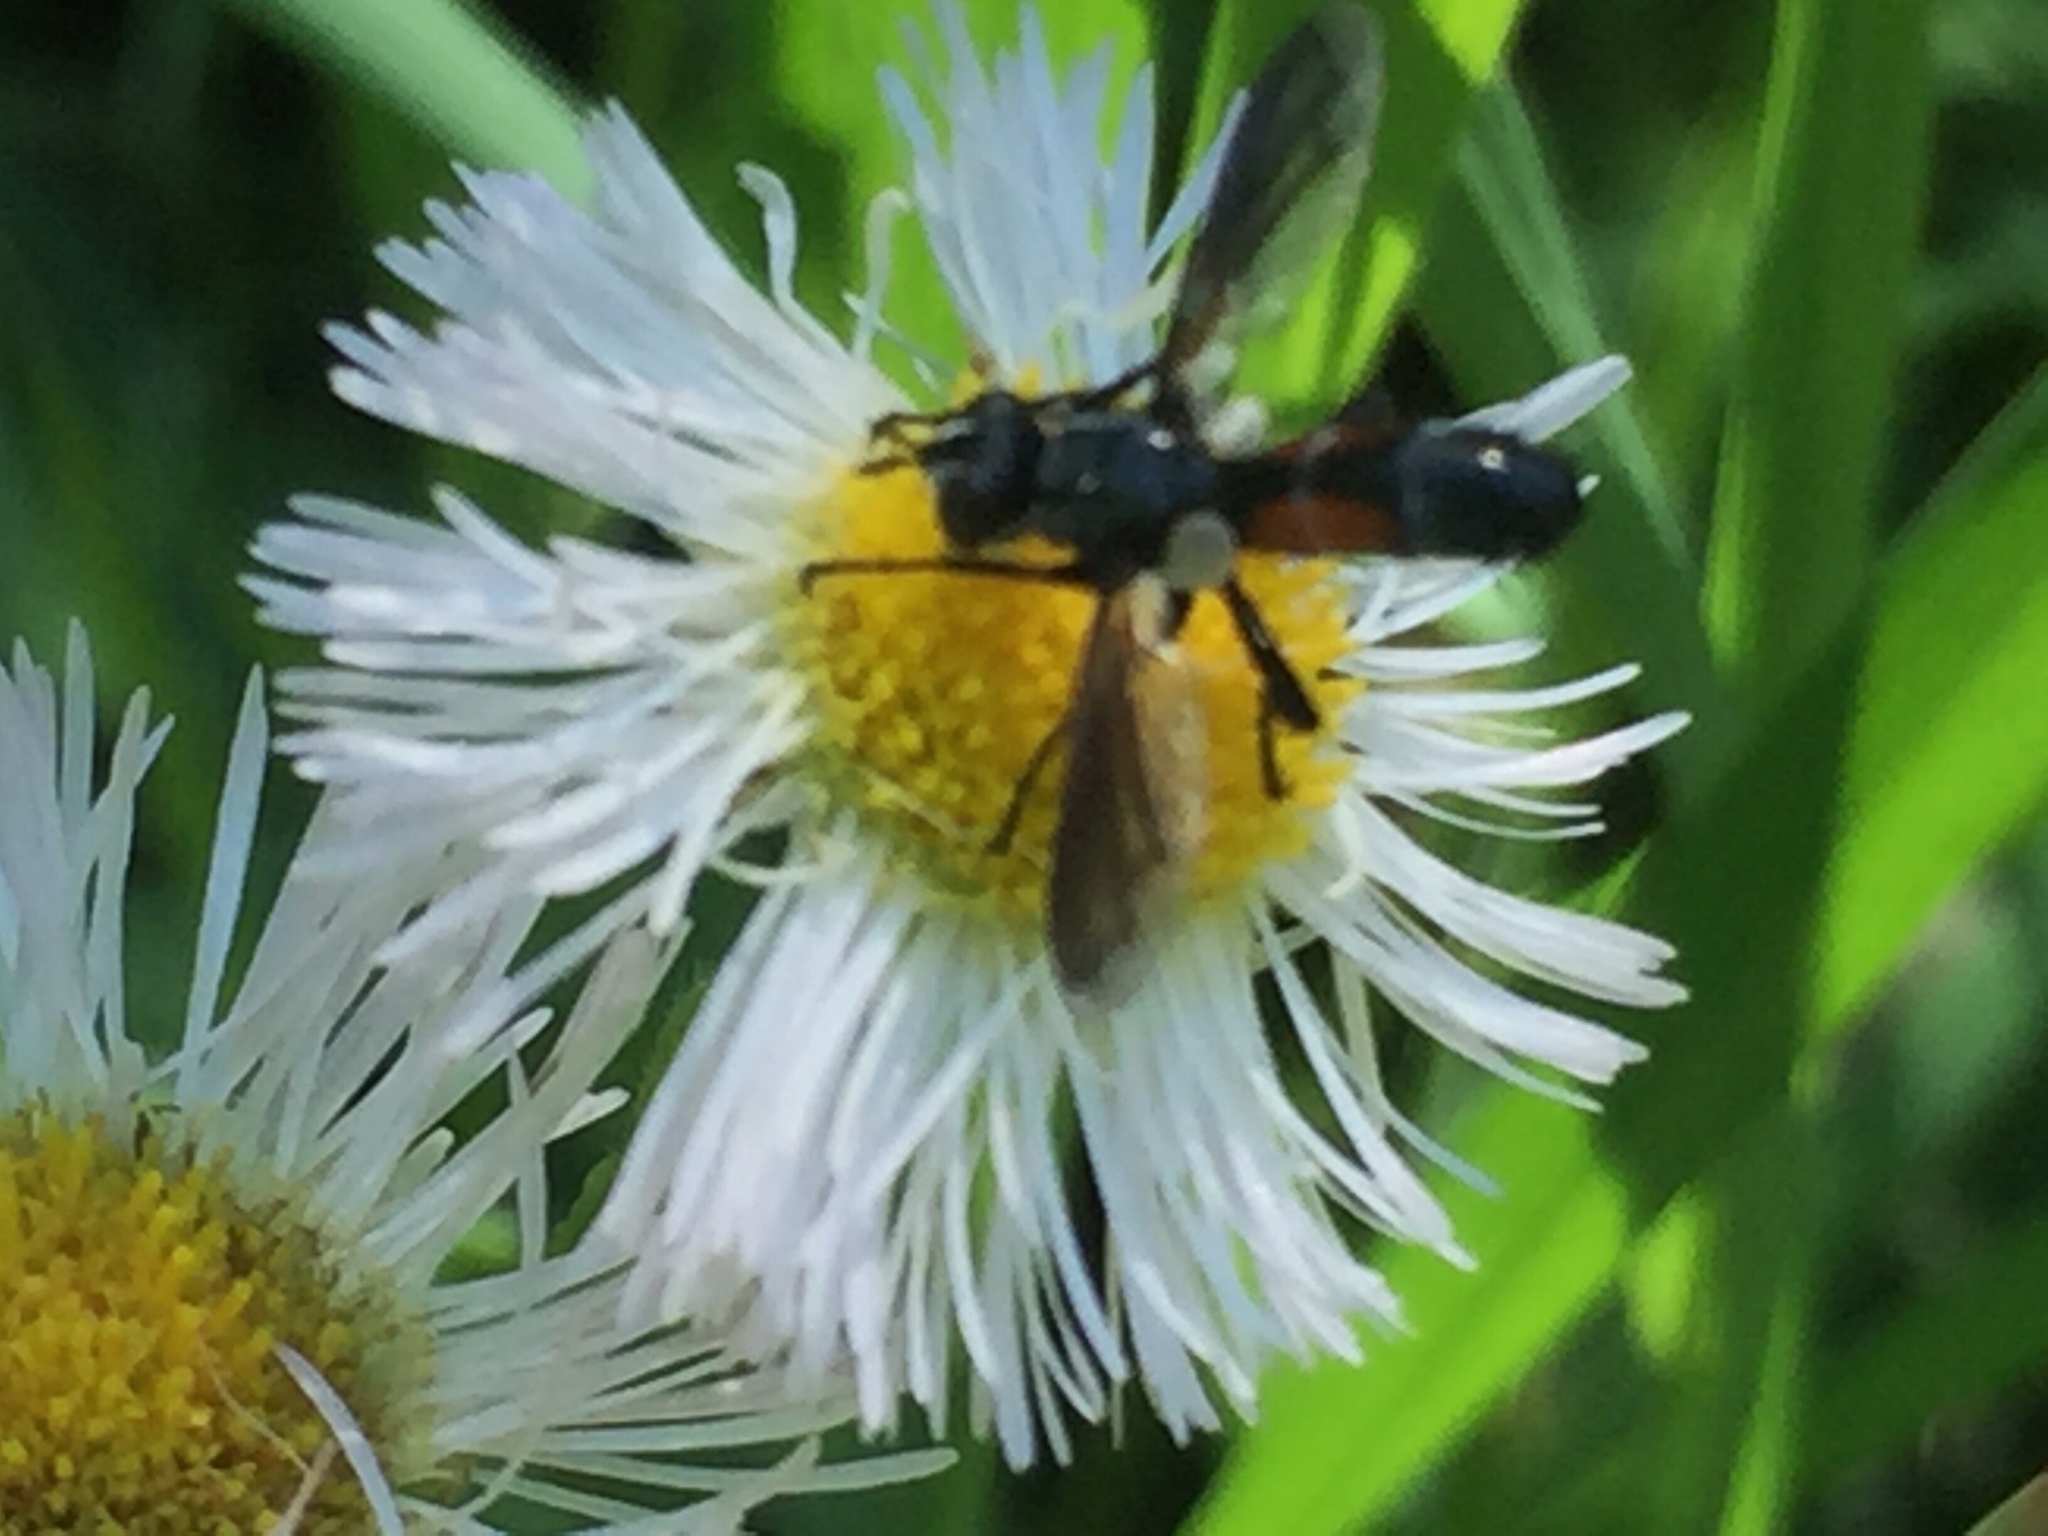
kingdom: Animalia
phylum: Arthropoda
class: Insecta
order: Diptera
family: Tachinidae
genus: Cylindromyia
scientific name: Cylindromyia
